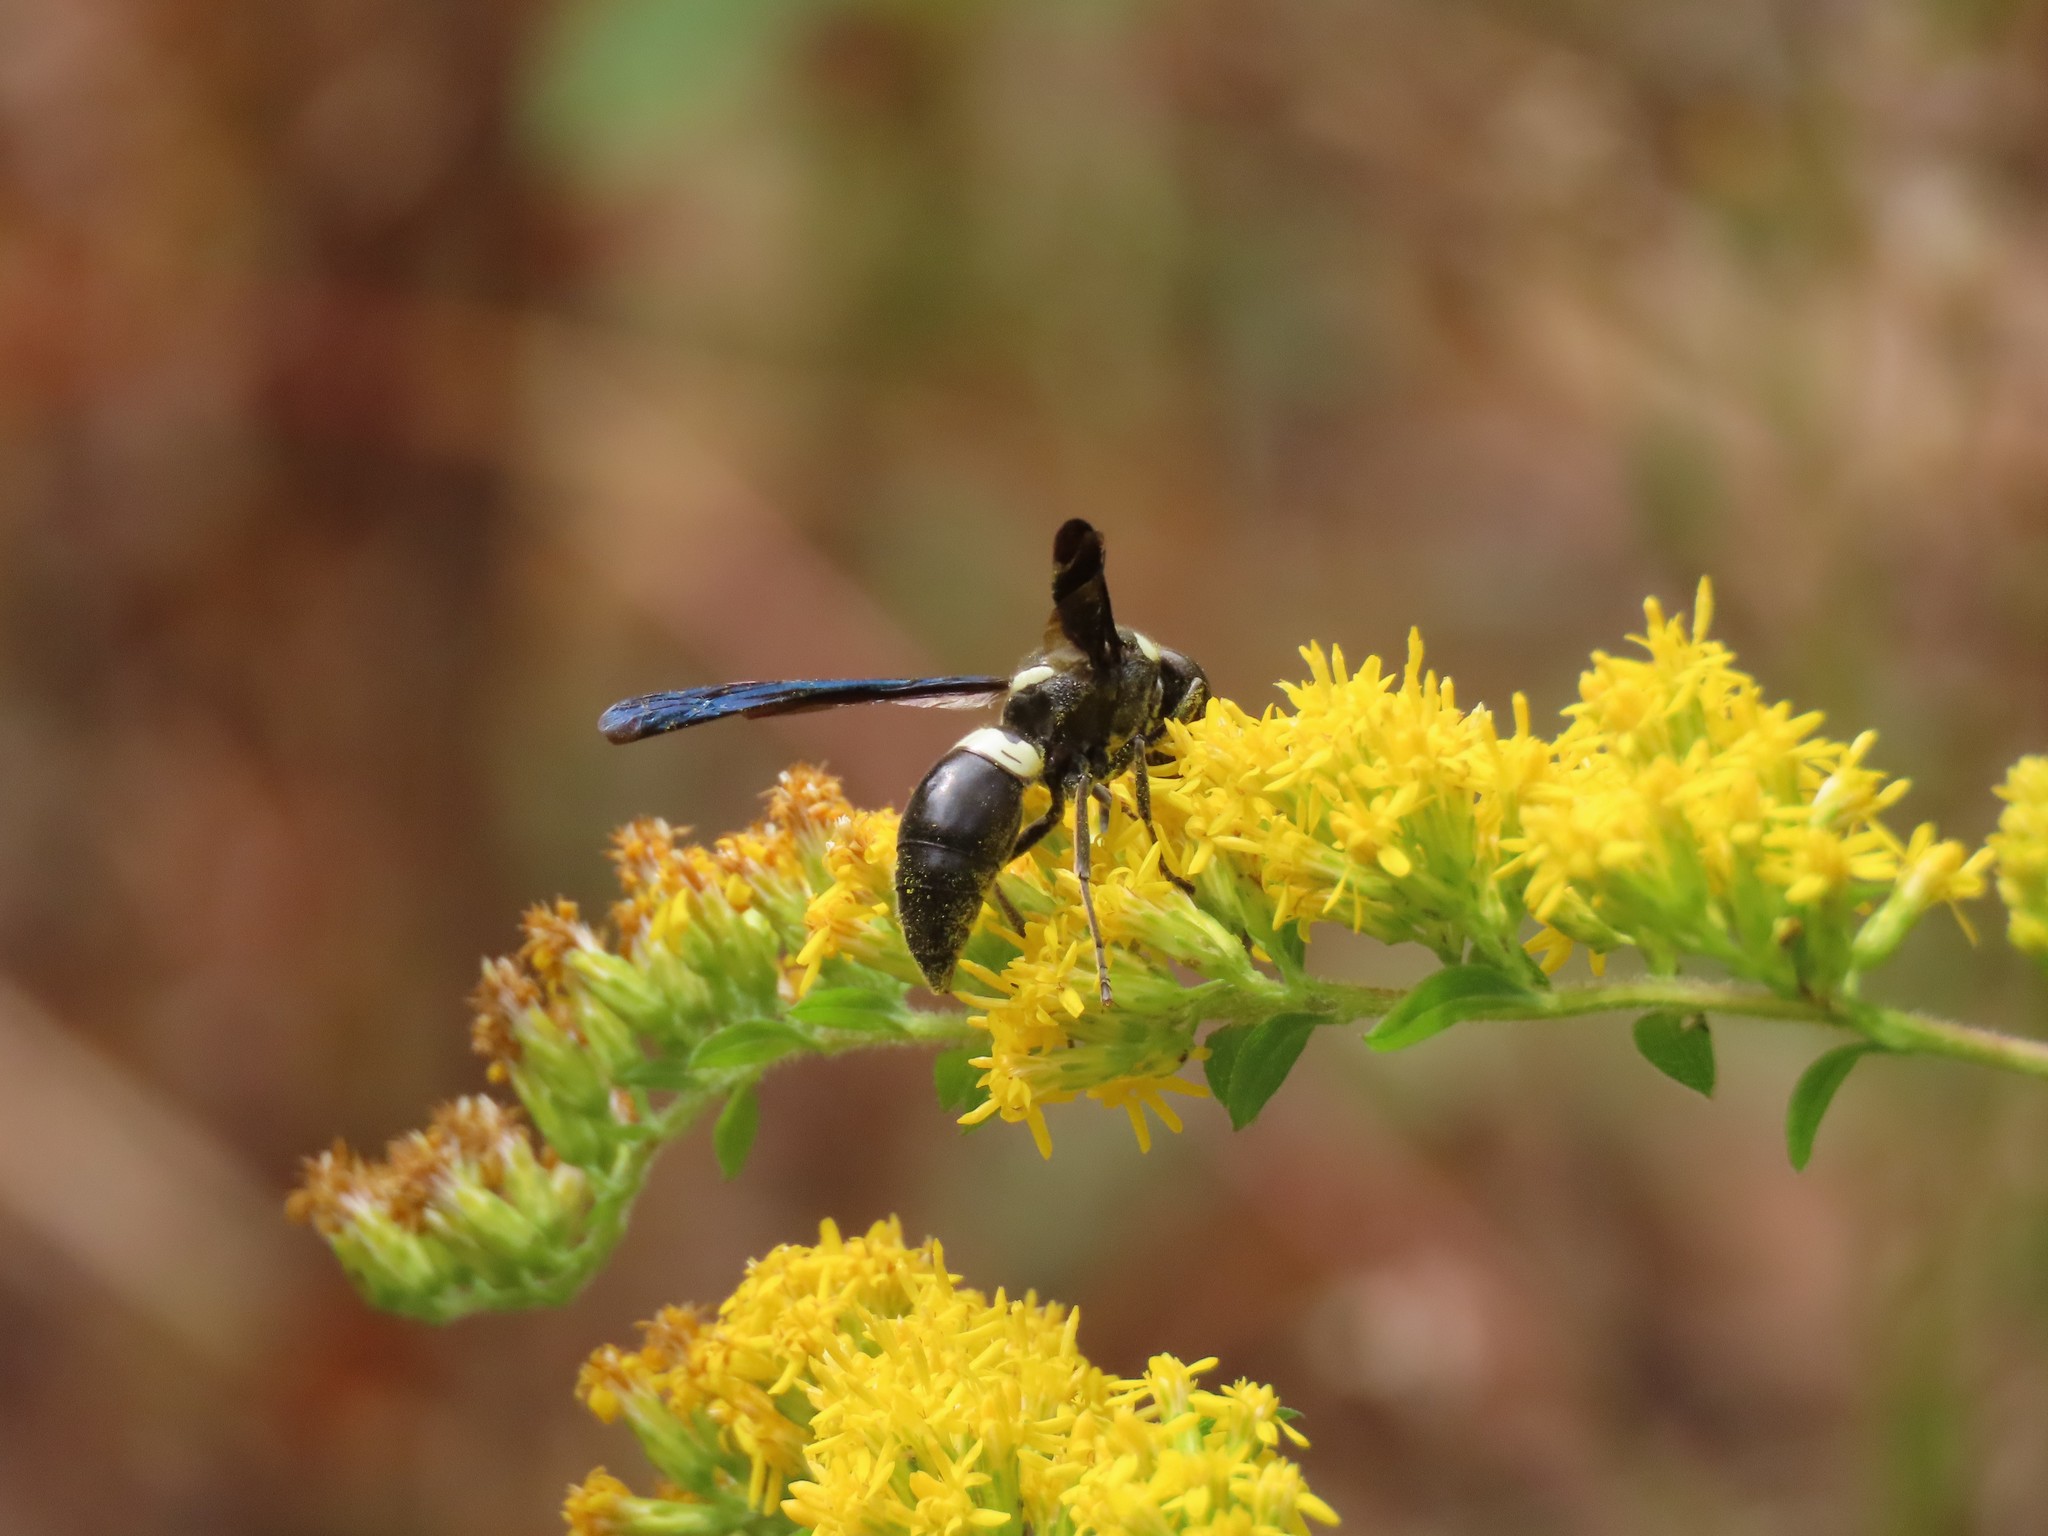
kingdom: Animalia
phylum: Arthropoda
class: Insecta
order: Hymenoptera
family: Eumenidae
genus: Monobia
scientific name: Monobia quadridens
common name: Four-toothed mason wasp
